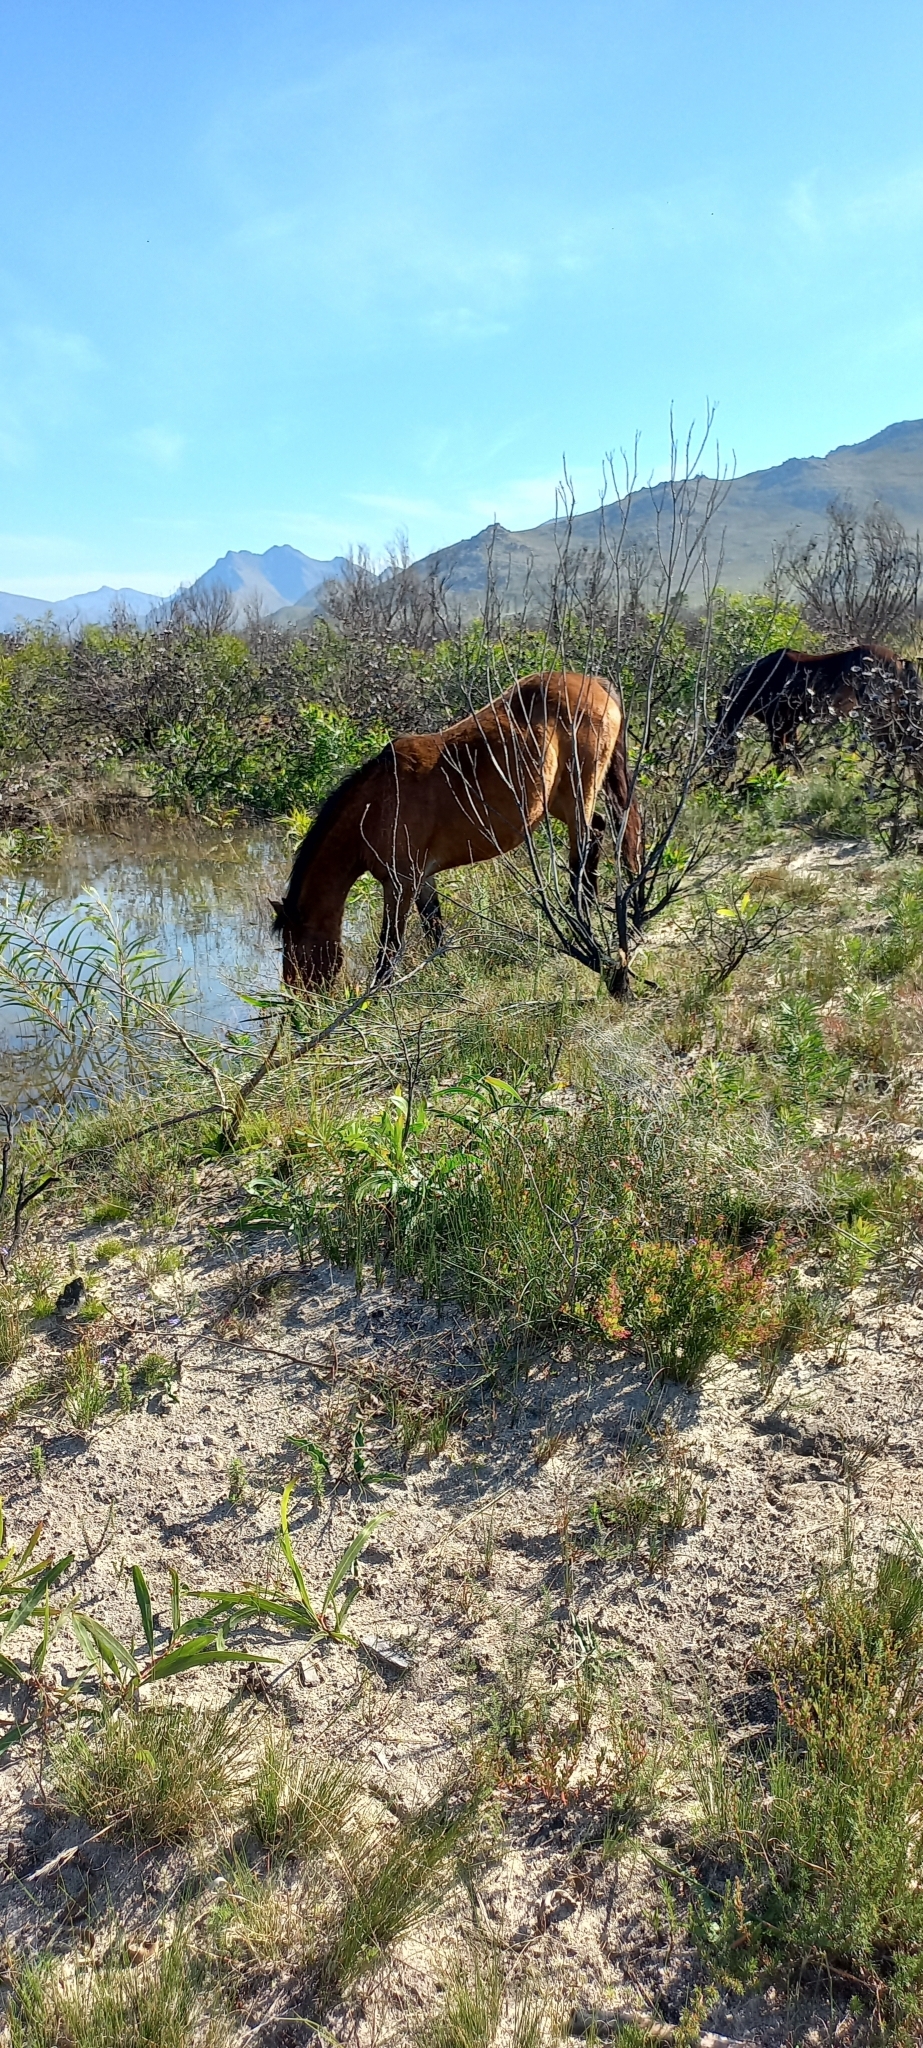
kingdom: Animalia
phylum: Chordata
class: Mammalia
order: Perissodactyla
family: Equidae
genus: Equus
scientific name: Equus caballus
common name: Horse
